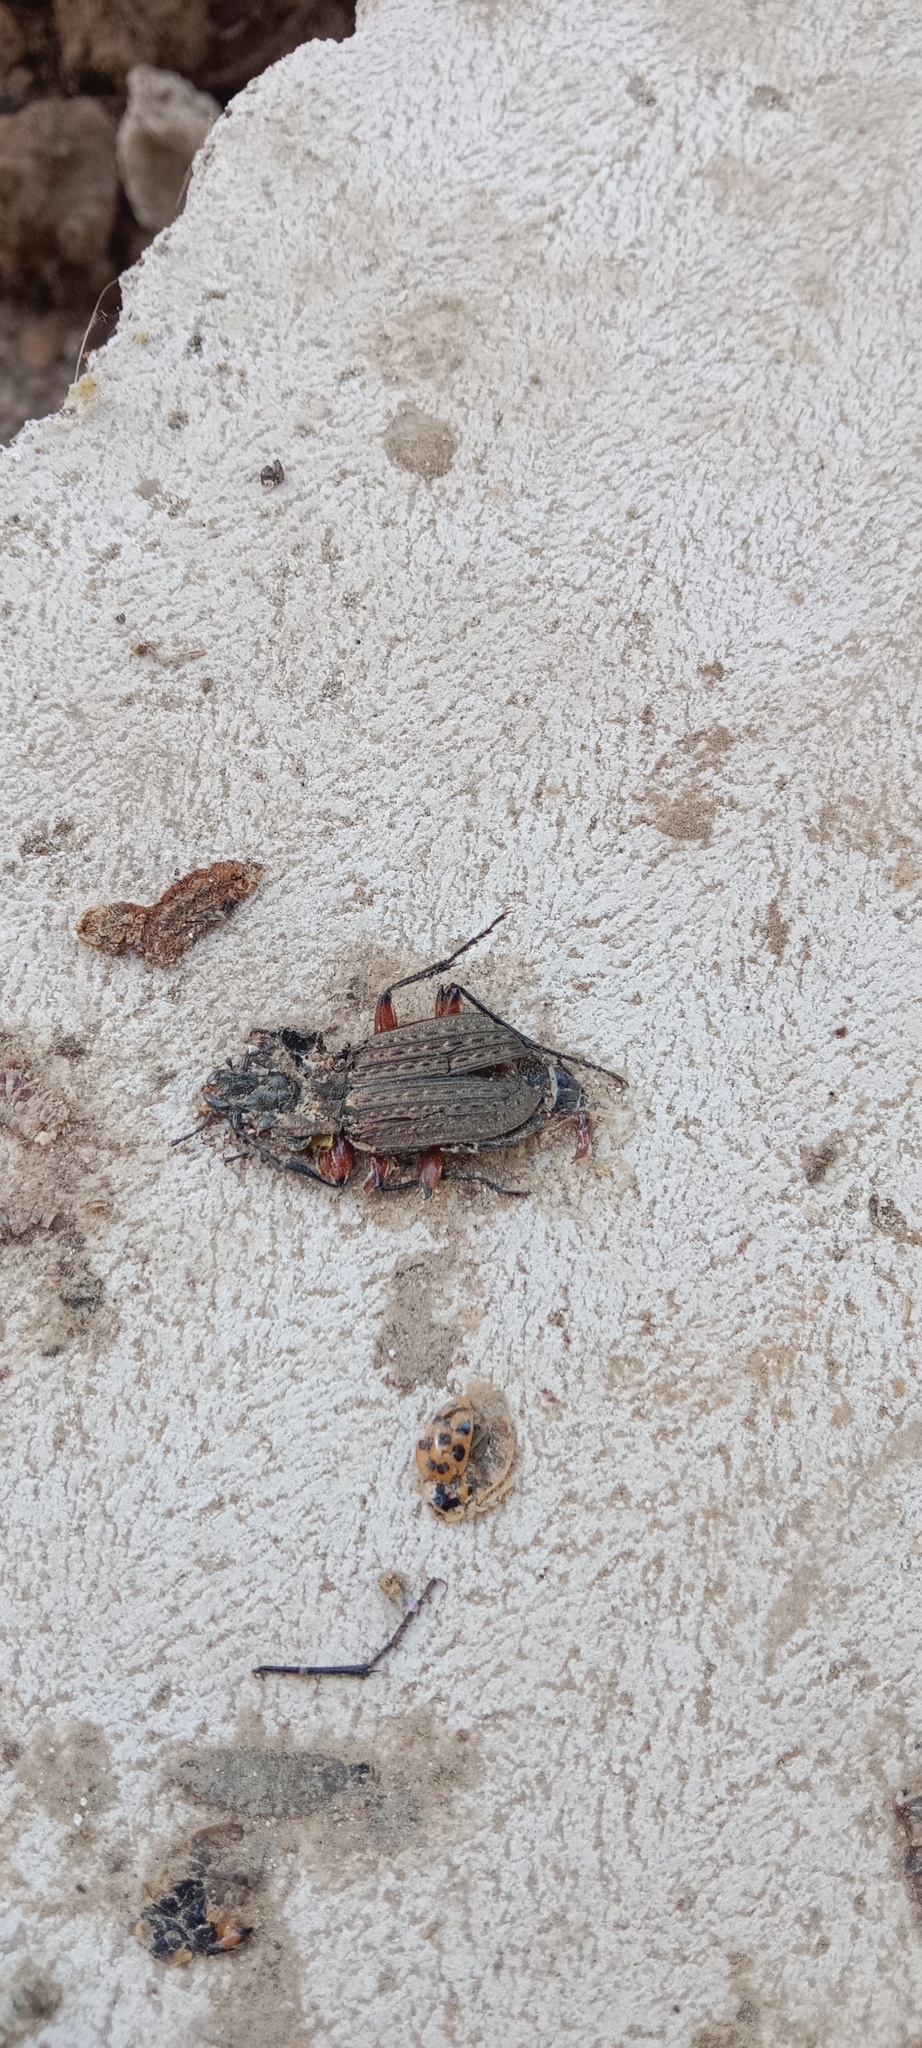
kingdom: Animalia
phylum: Arthropoda
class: Insecta
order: Coleoptera
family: Carabidae
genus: Carabus
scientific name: Carabus granulatus
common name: Granulate ground beetle
